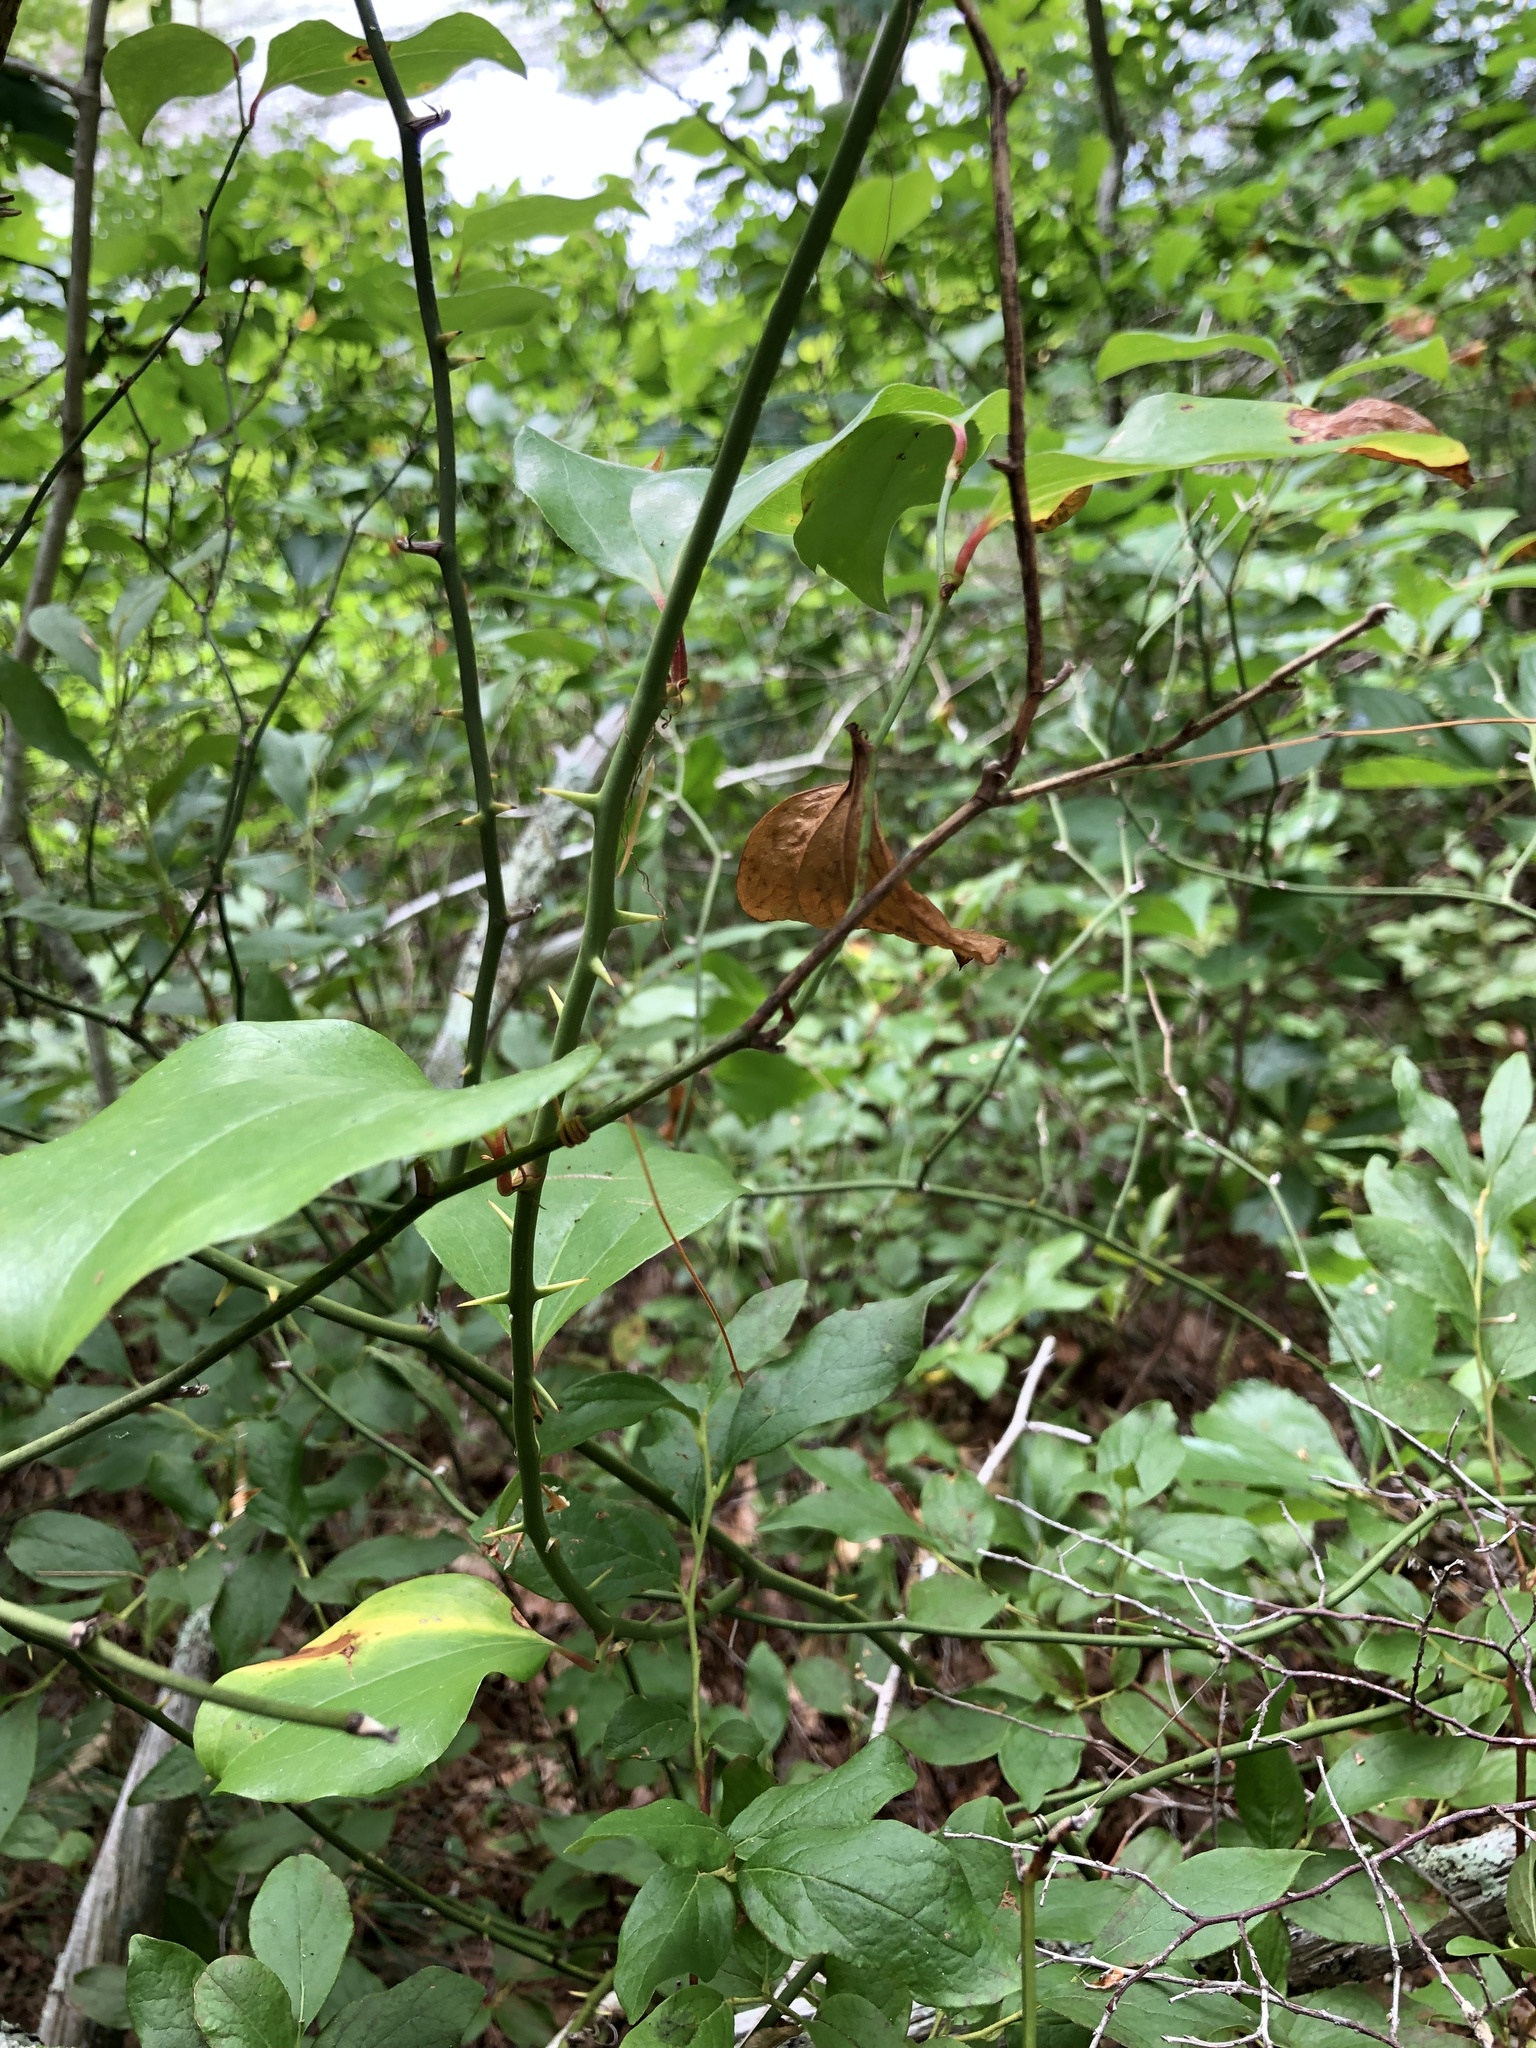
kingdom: Plantae
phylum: Tracheophyta
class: Liliopsida
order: Liliales
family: Smilacaceae
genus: Smilax
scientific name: Smilax rotundifolia
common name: Bullbriar
